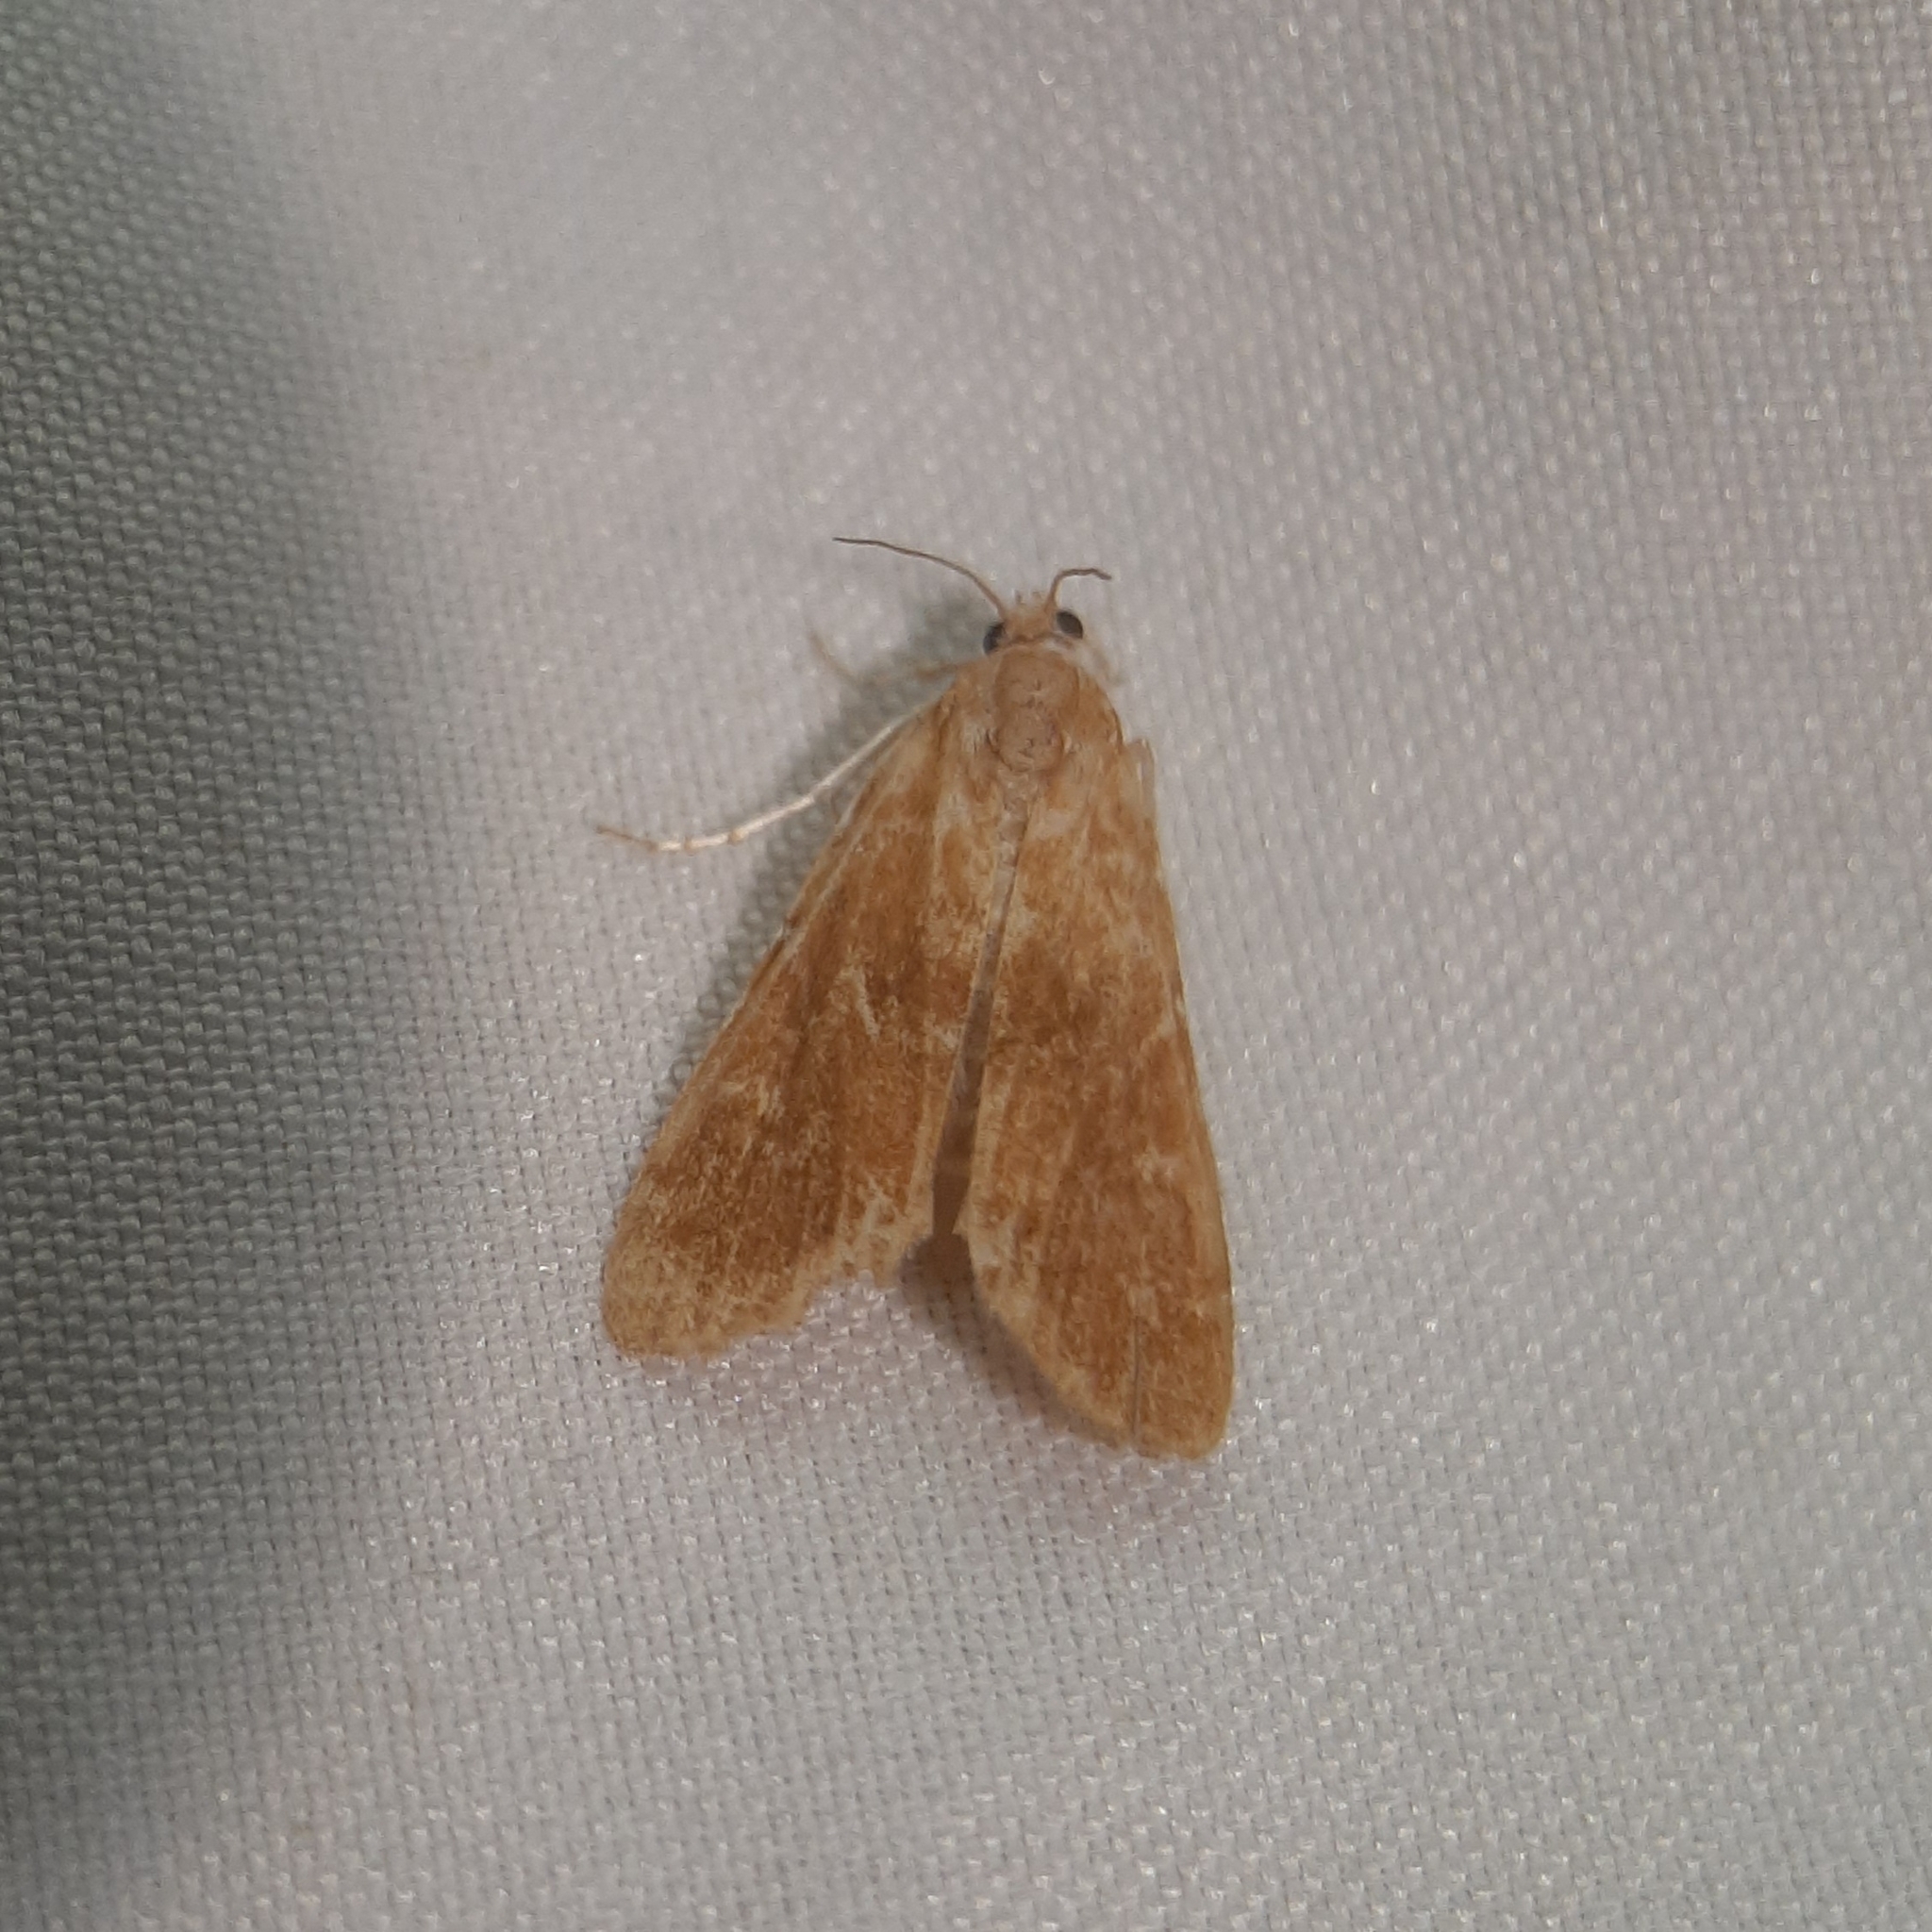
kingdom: Animalia
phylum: Arthropoda
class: Insecta
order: Lepidoptera
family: Crambidae
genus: Elophila
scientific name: Elophila gyralis
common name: Waterlily borer moth
